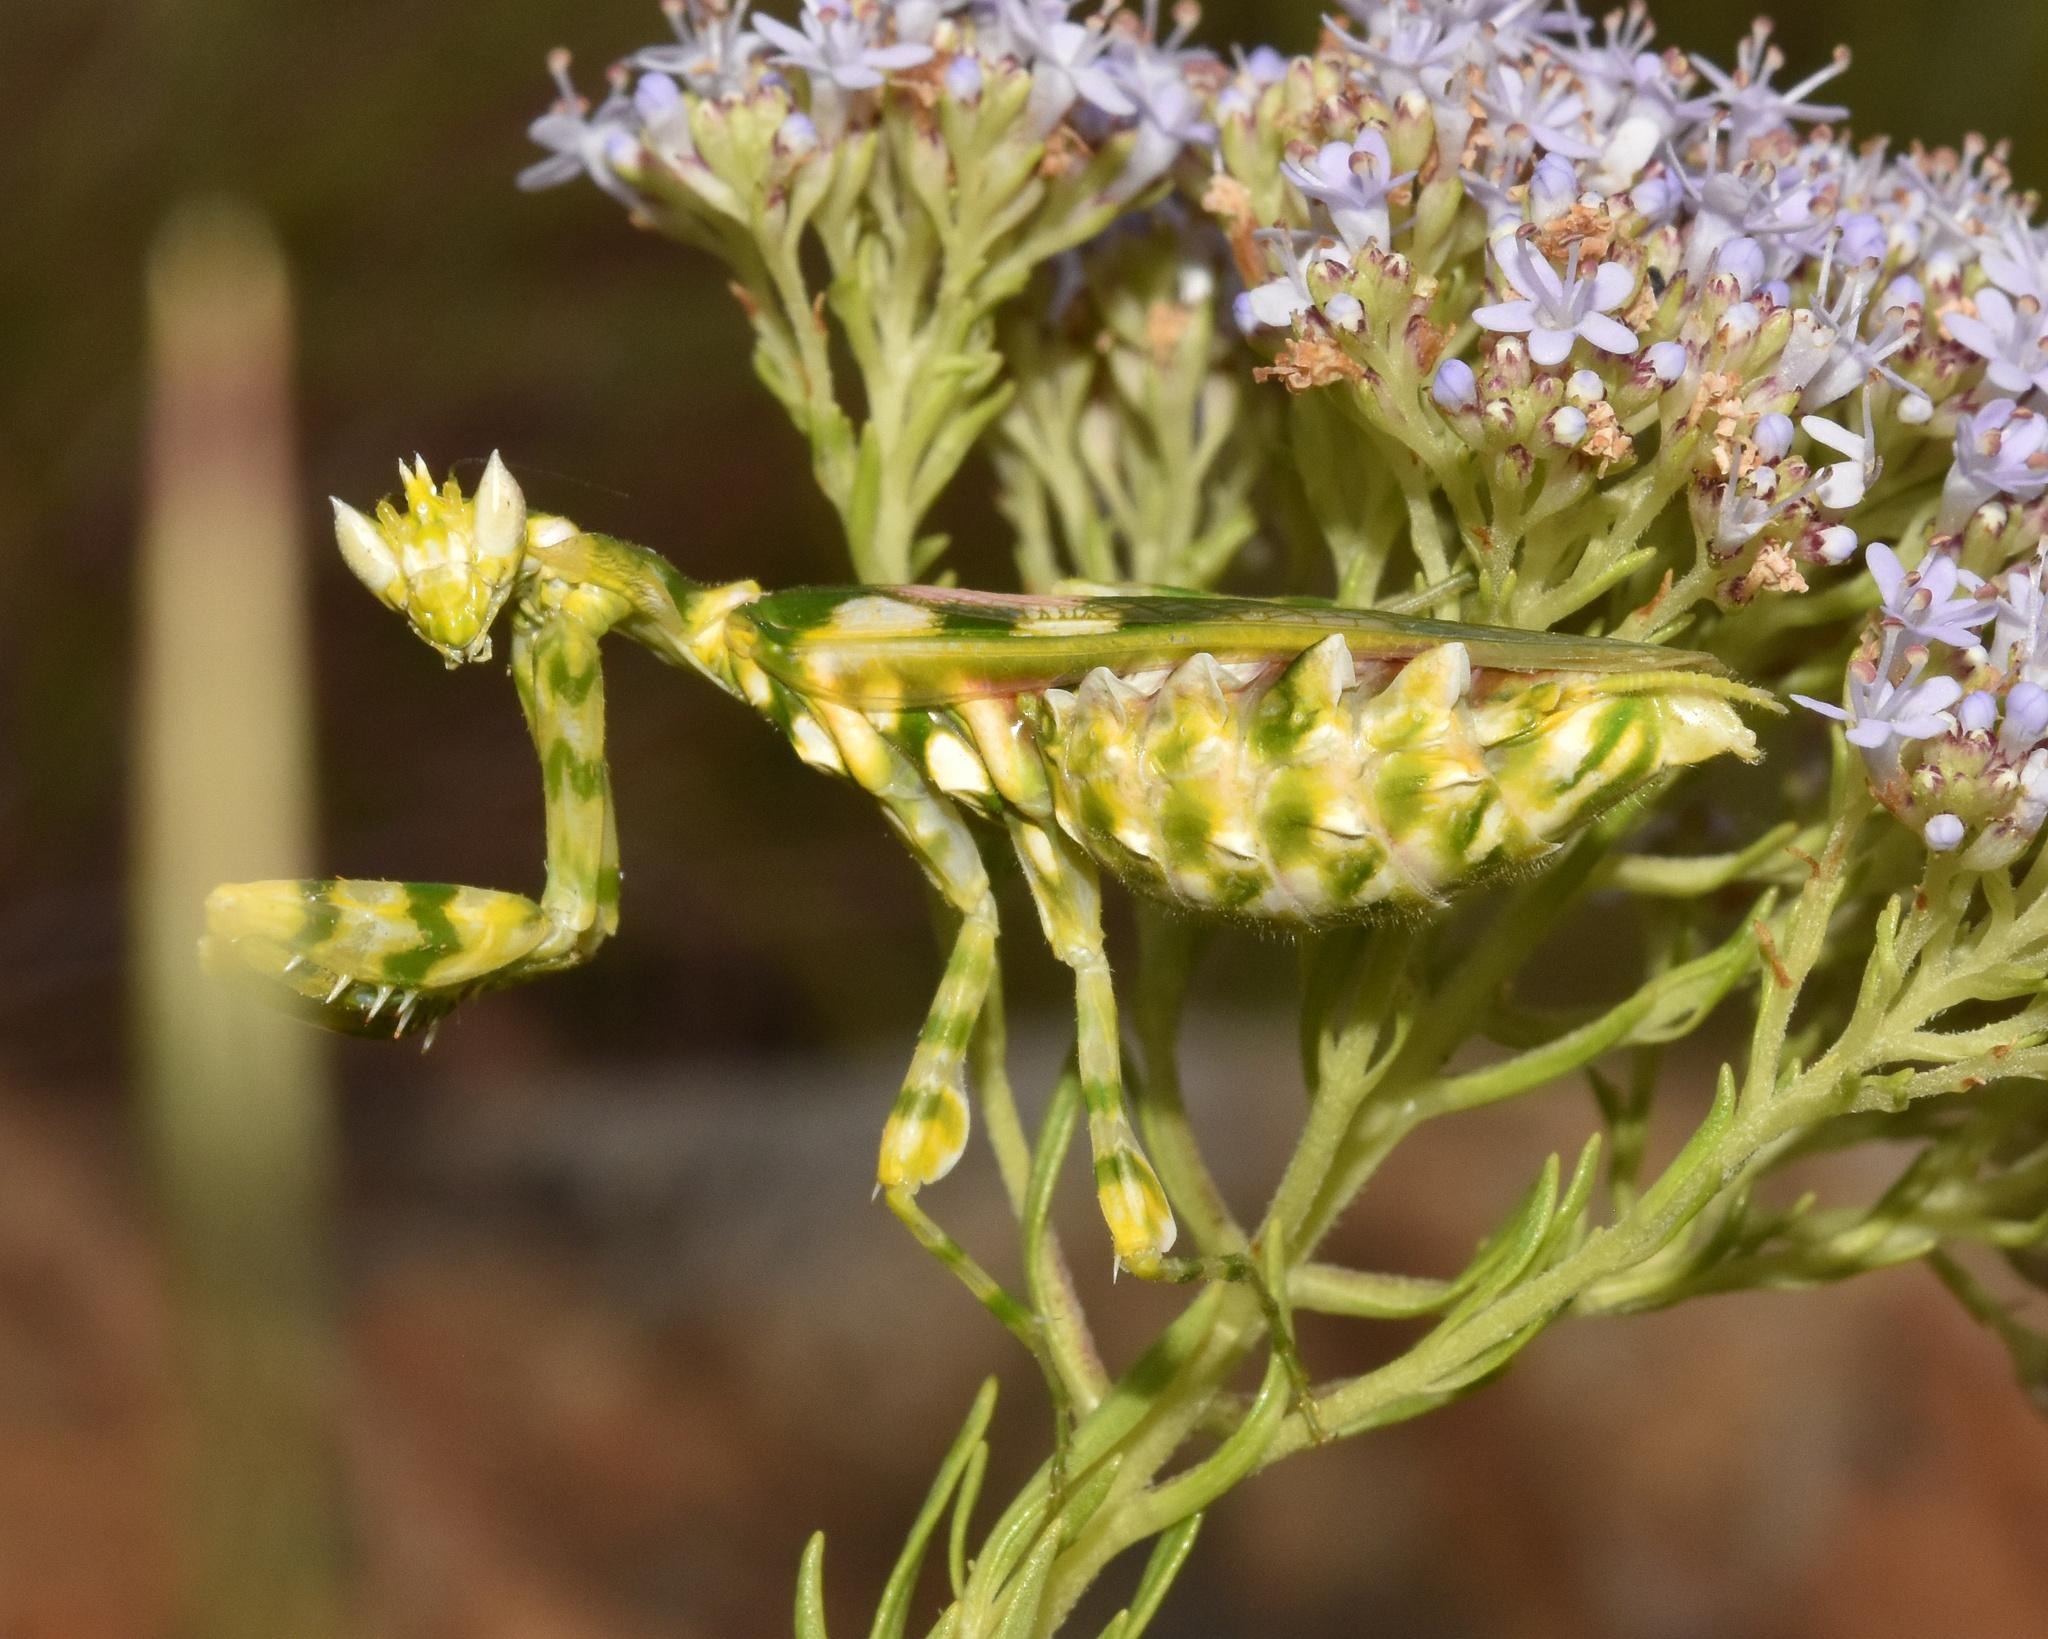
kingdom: Animalia
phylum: Arthropoda
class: Insecta
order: Mantodea
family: Galinthiadidae
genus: Harpagomantis
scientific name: Harpagomantis tricolor
